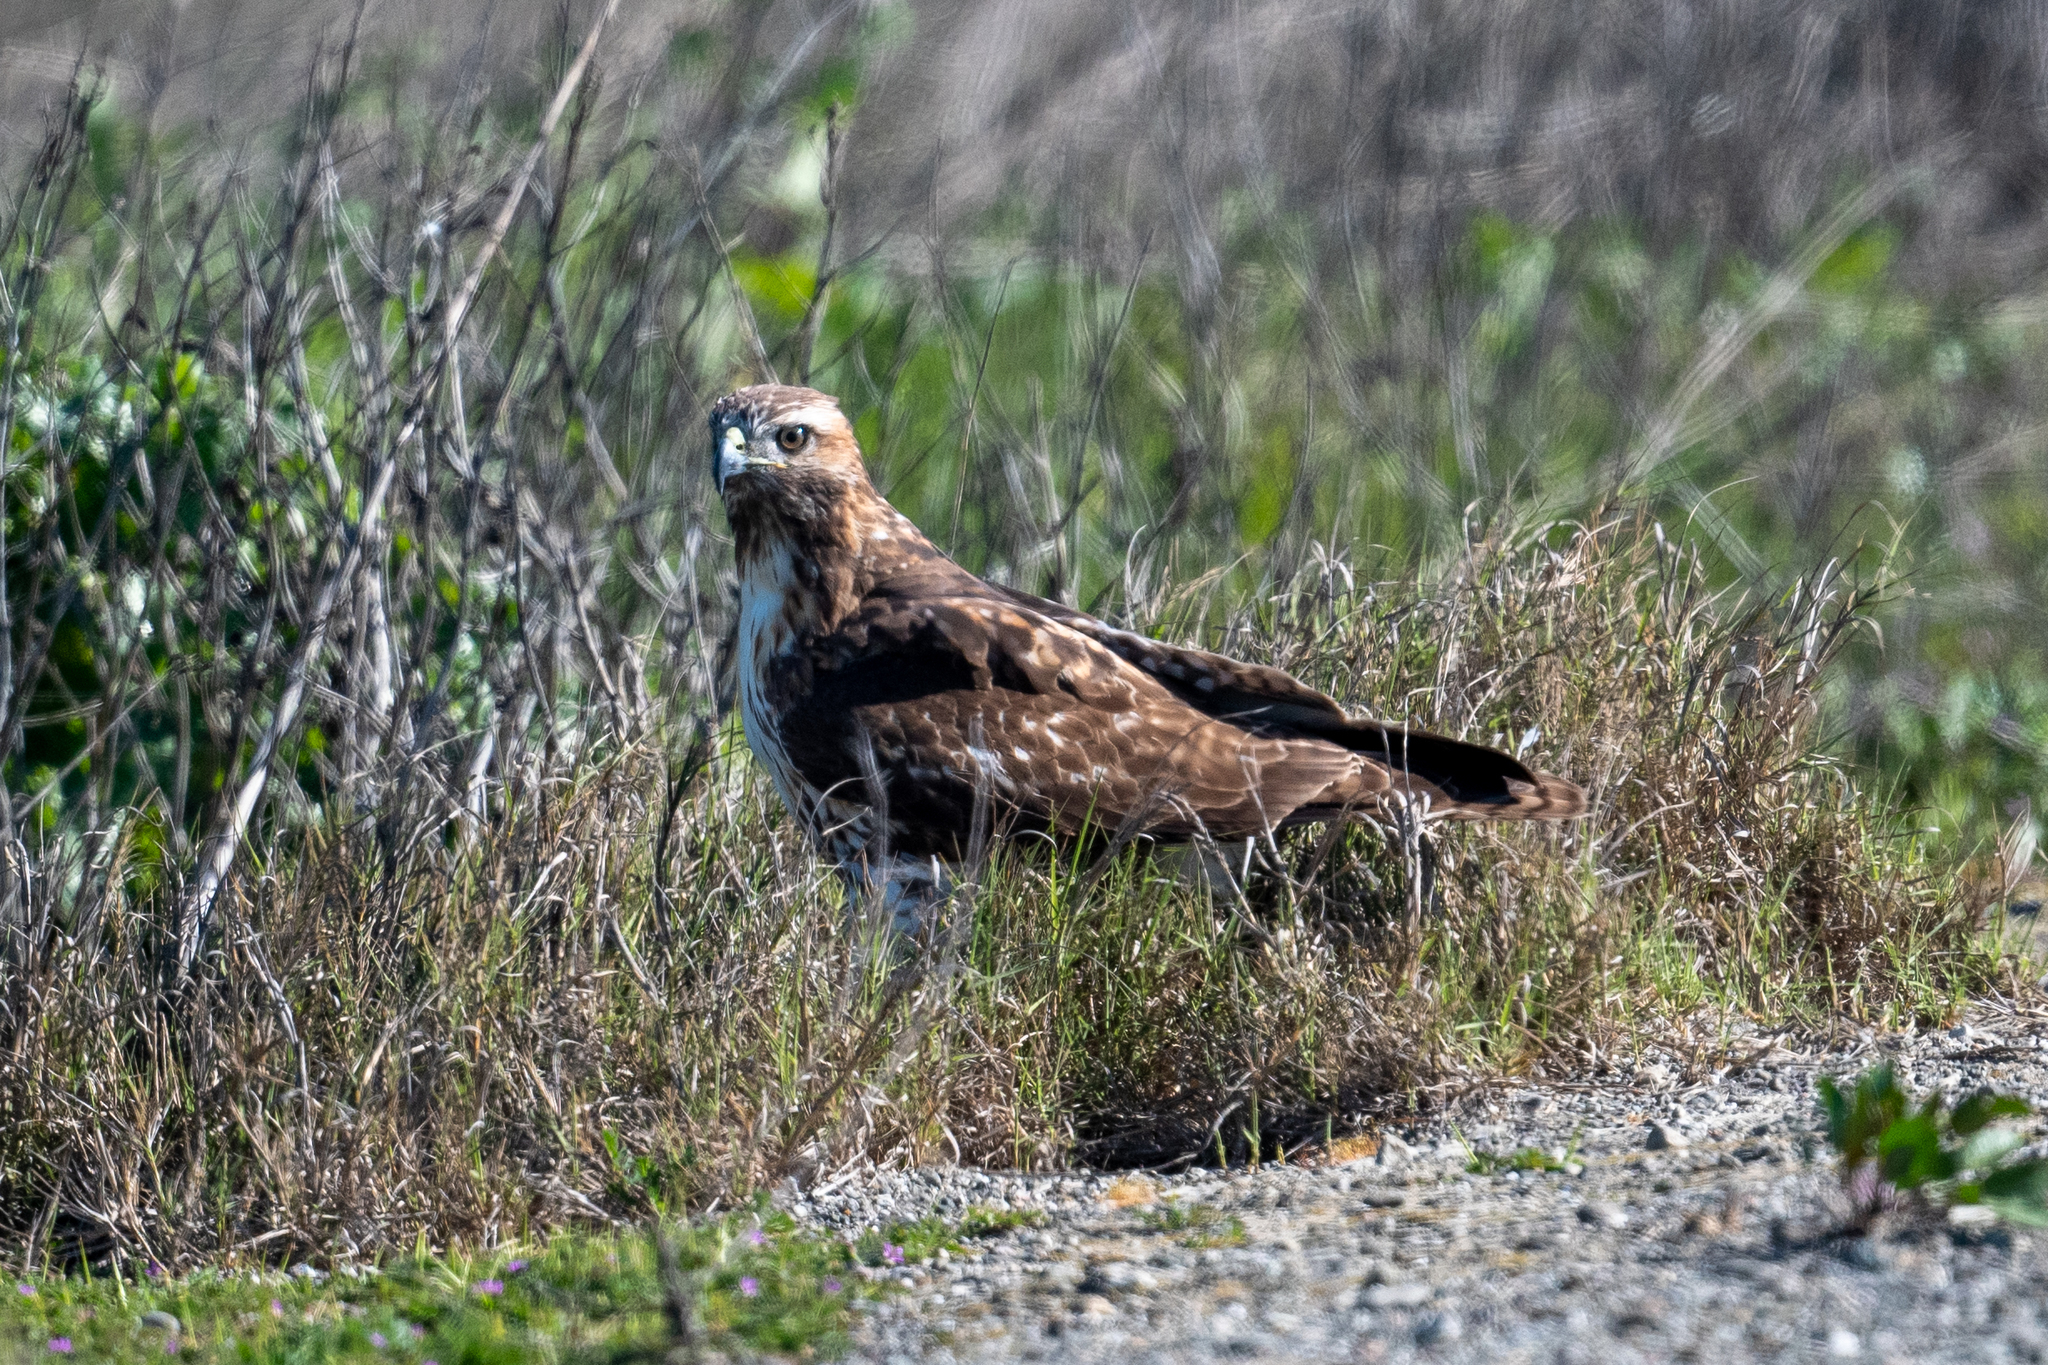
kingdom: Animalia
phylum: Chordata
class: Aves
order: Accipitriformes
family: Accipitridae
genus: Buteo
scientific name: Buteo jamaicensis
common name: Red-tailed hawk
